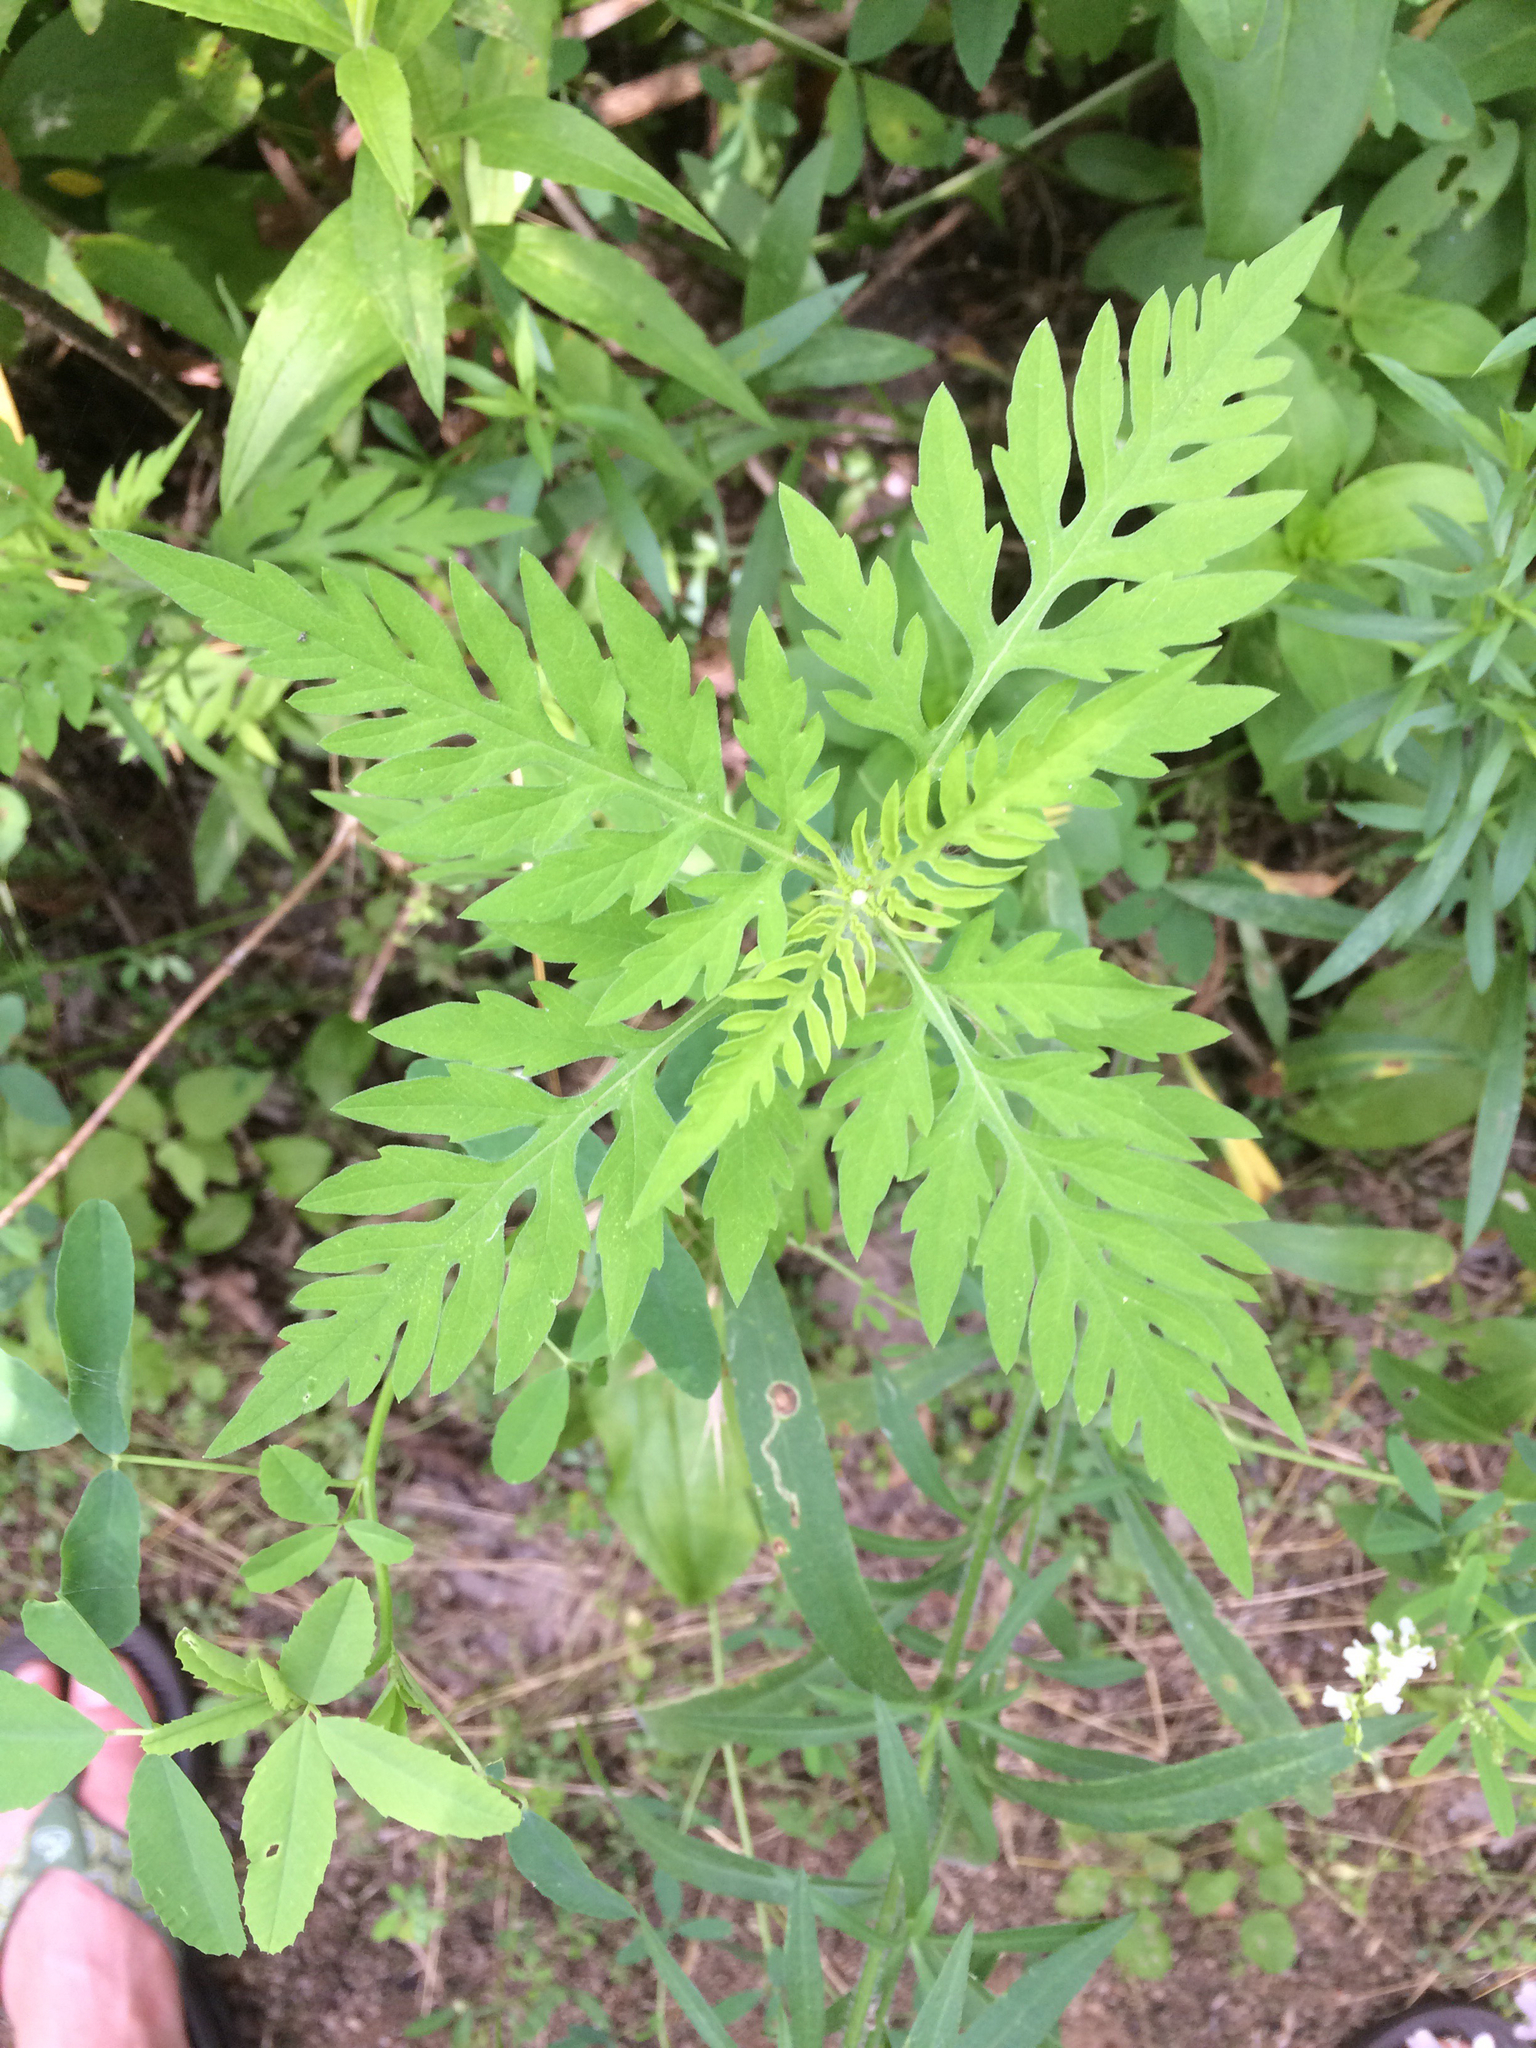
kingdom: Plantae
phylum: Tracheophyta
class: Magnoliopsida
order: Asterales
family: Asteraceae
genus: Ambrosia
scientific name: Ambrosia artemisiifolia
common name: Annual ragweed
